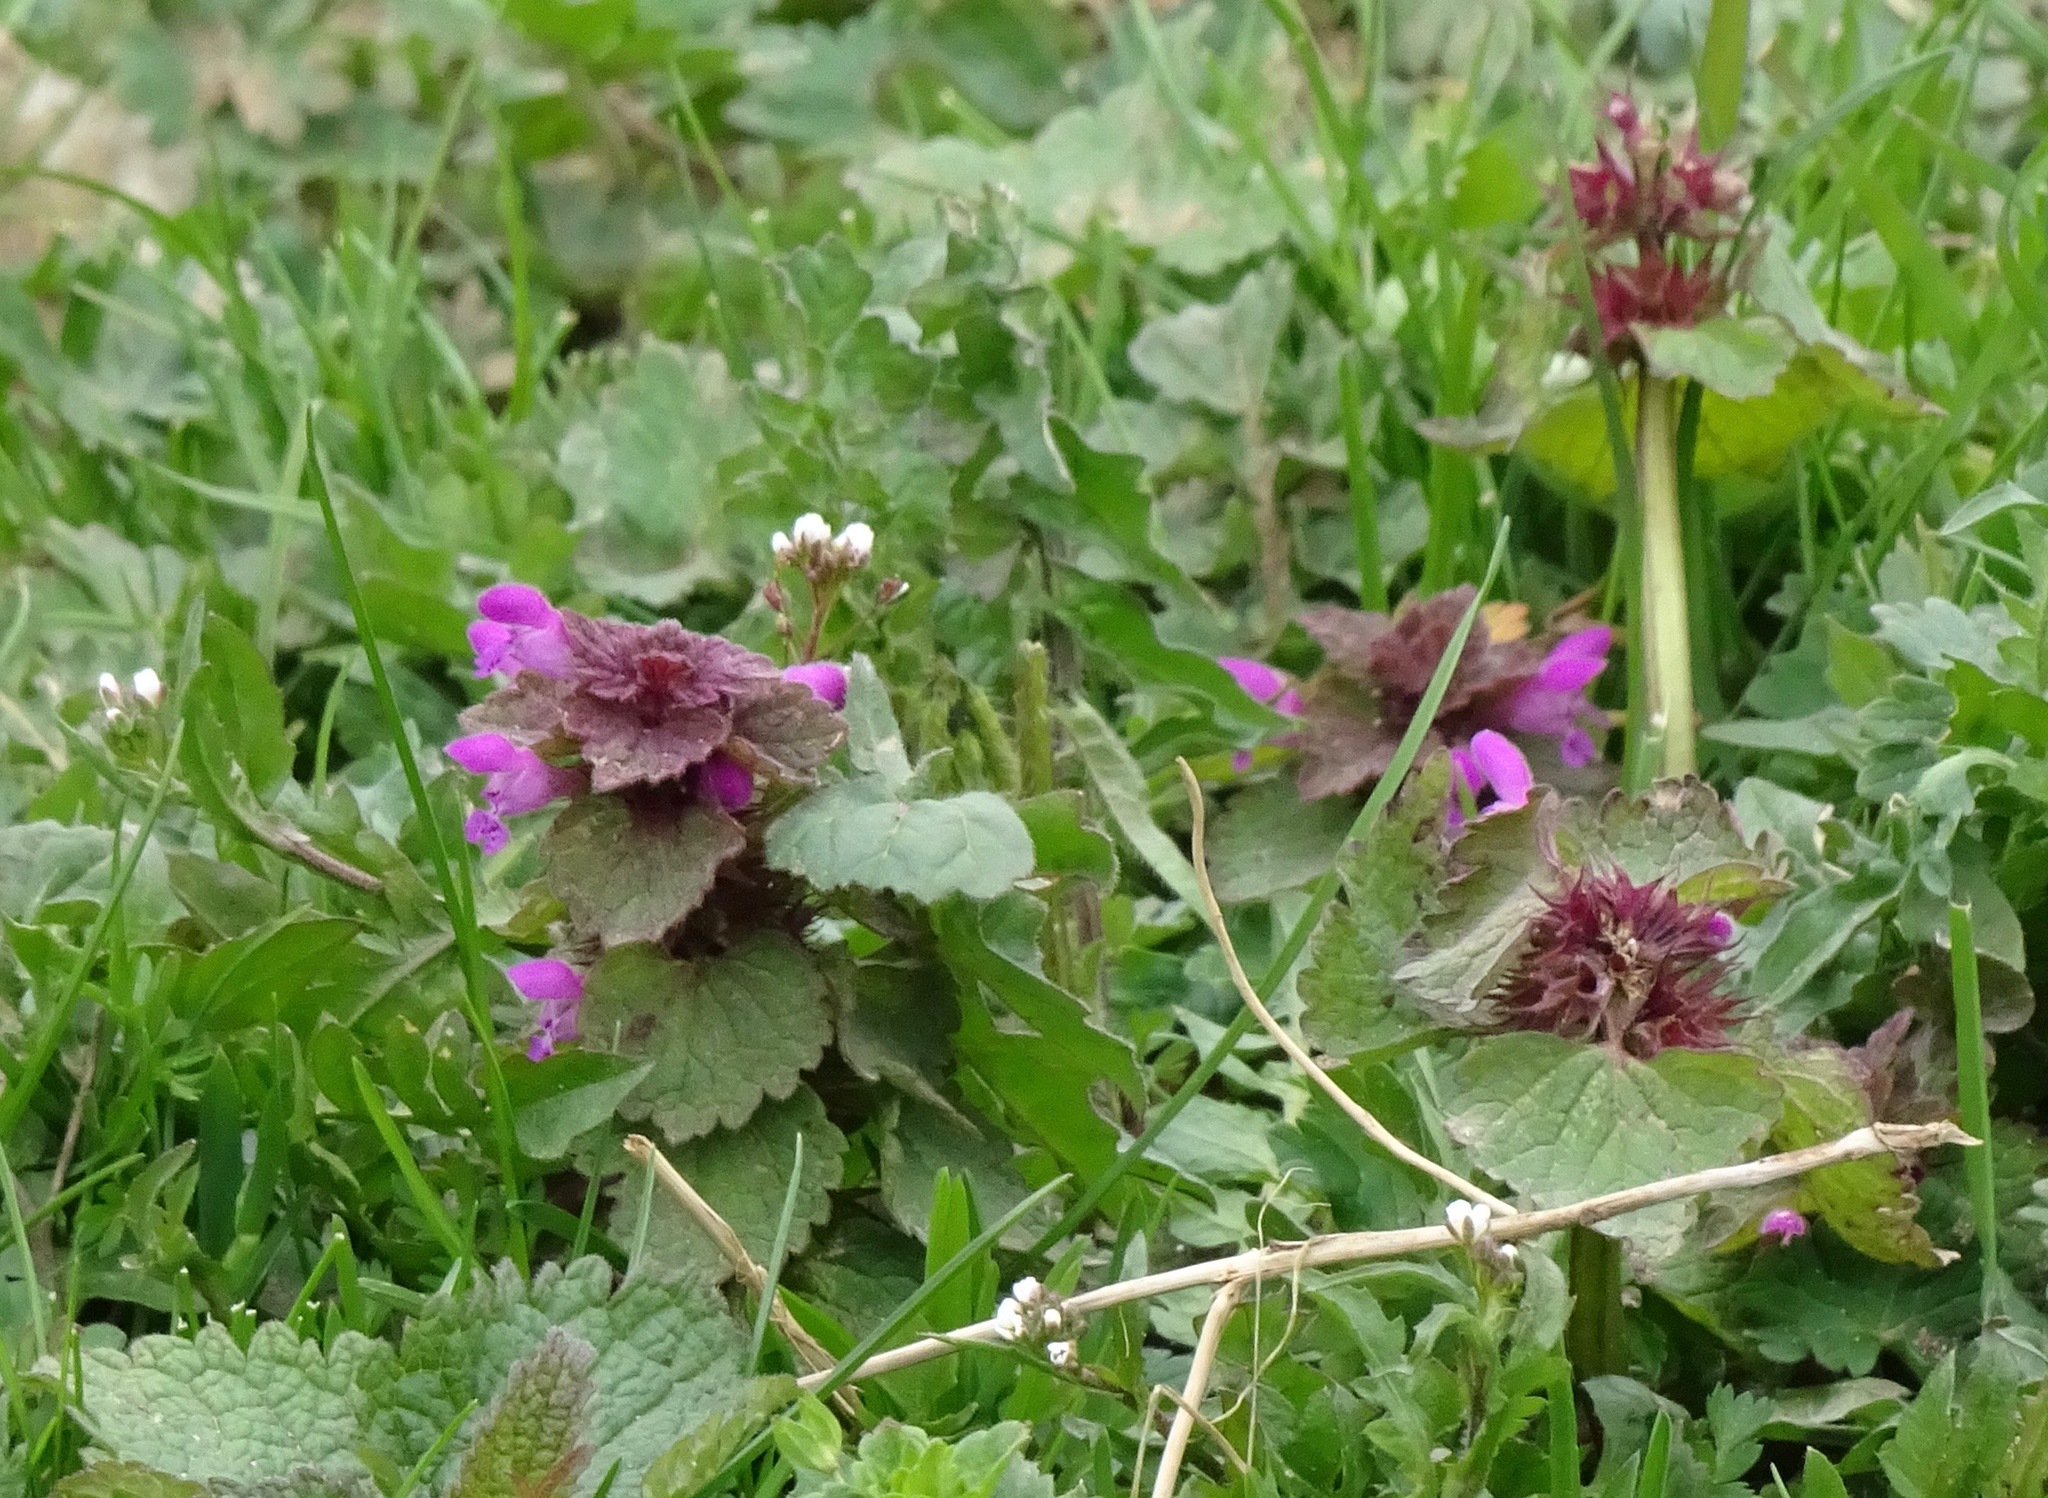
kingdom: Plantae
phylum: Tracheophyta
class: Magnoliopsida
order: Lamiales
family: Lamiaceae
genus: Lamium
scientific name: Lamium purpureum
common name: Red dead-nettle
